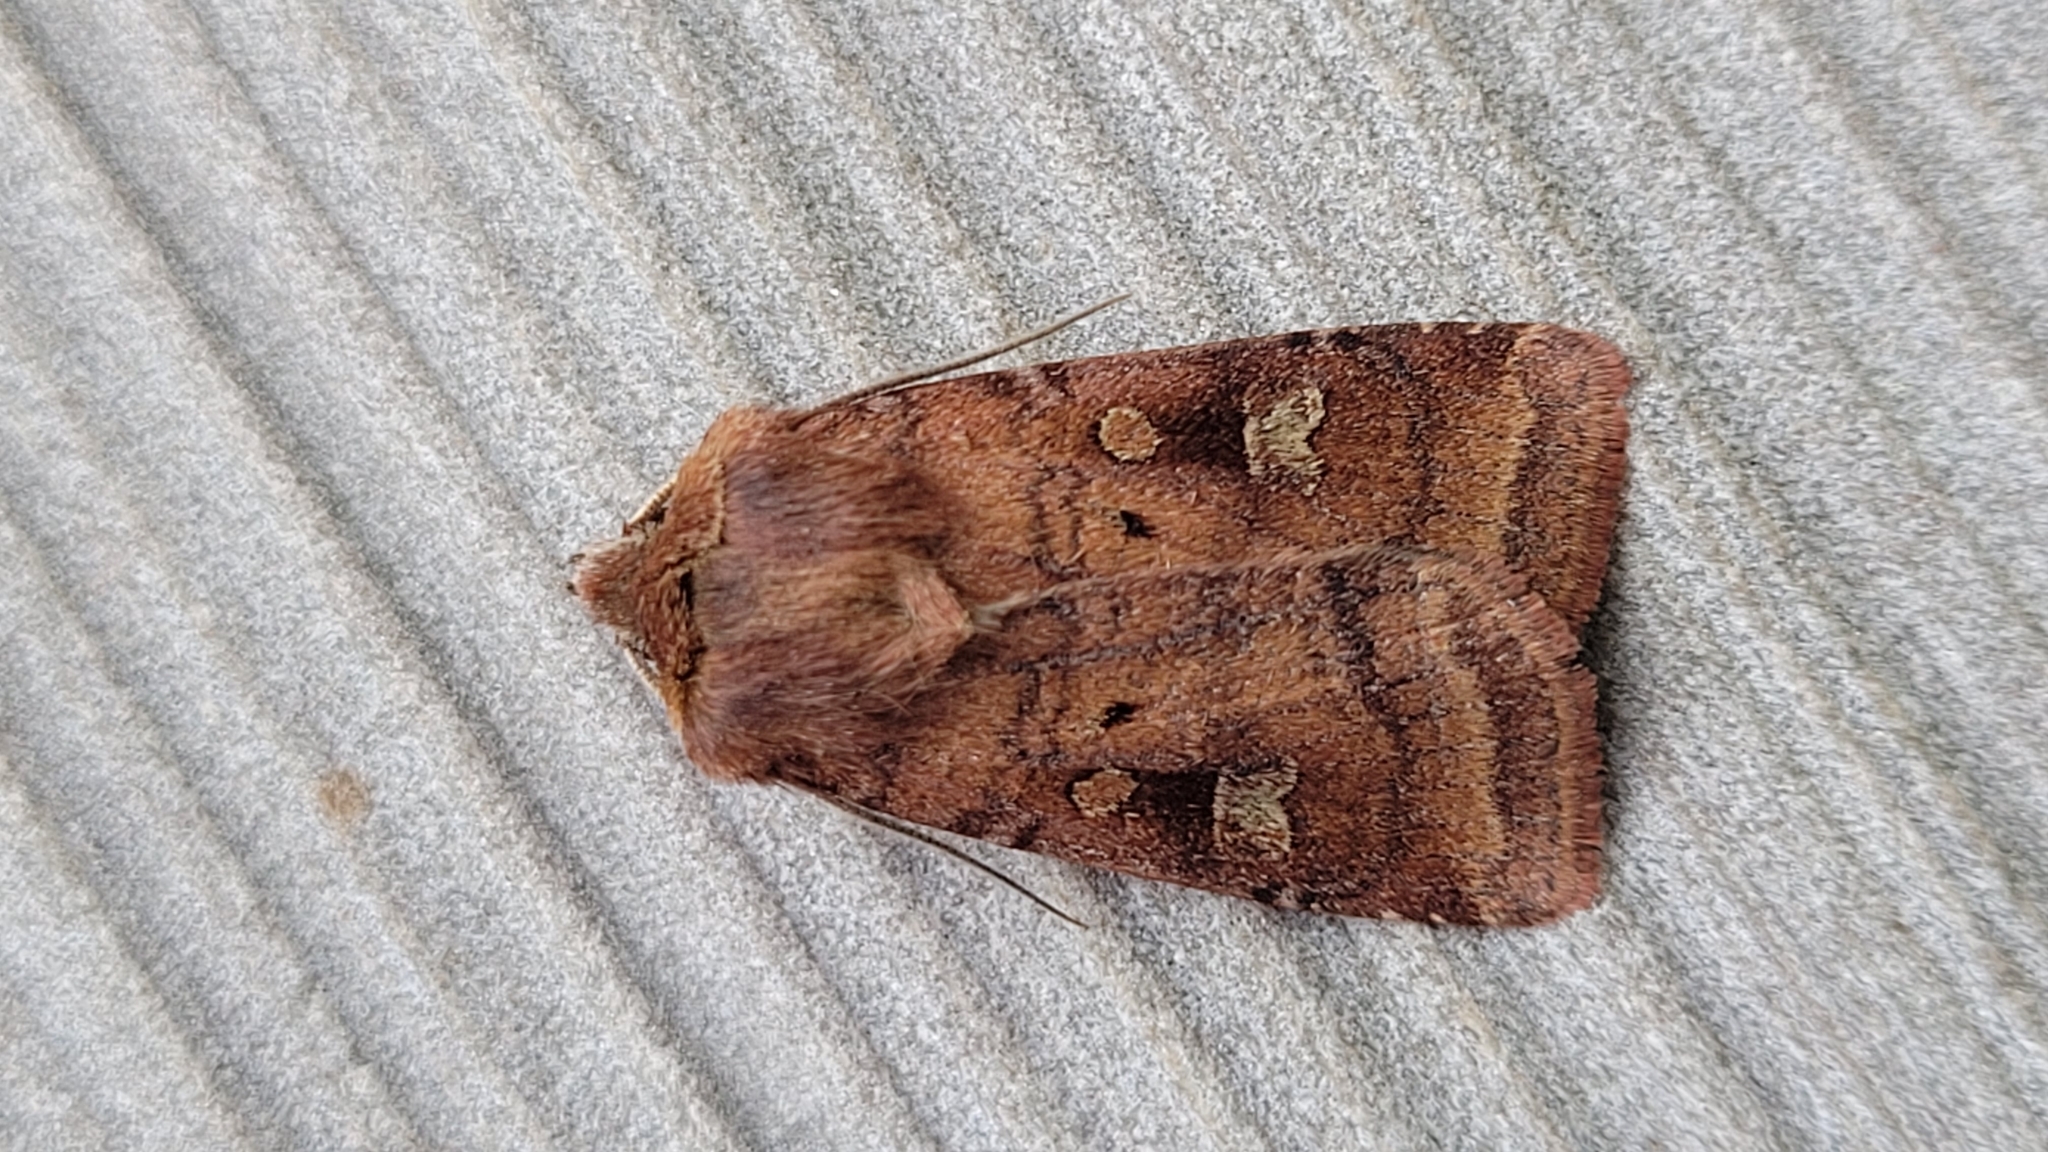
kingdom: Animalia
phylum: Arthropoda
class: Insecta
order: Lepidoptera
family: Noctuidae
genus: Diarsia
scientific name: Diarsia rubi
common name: Small square-spot
